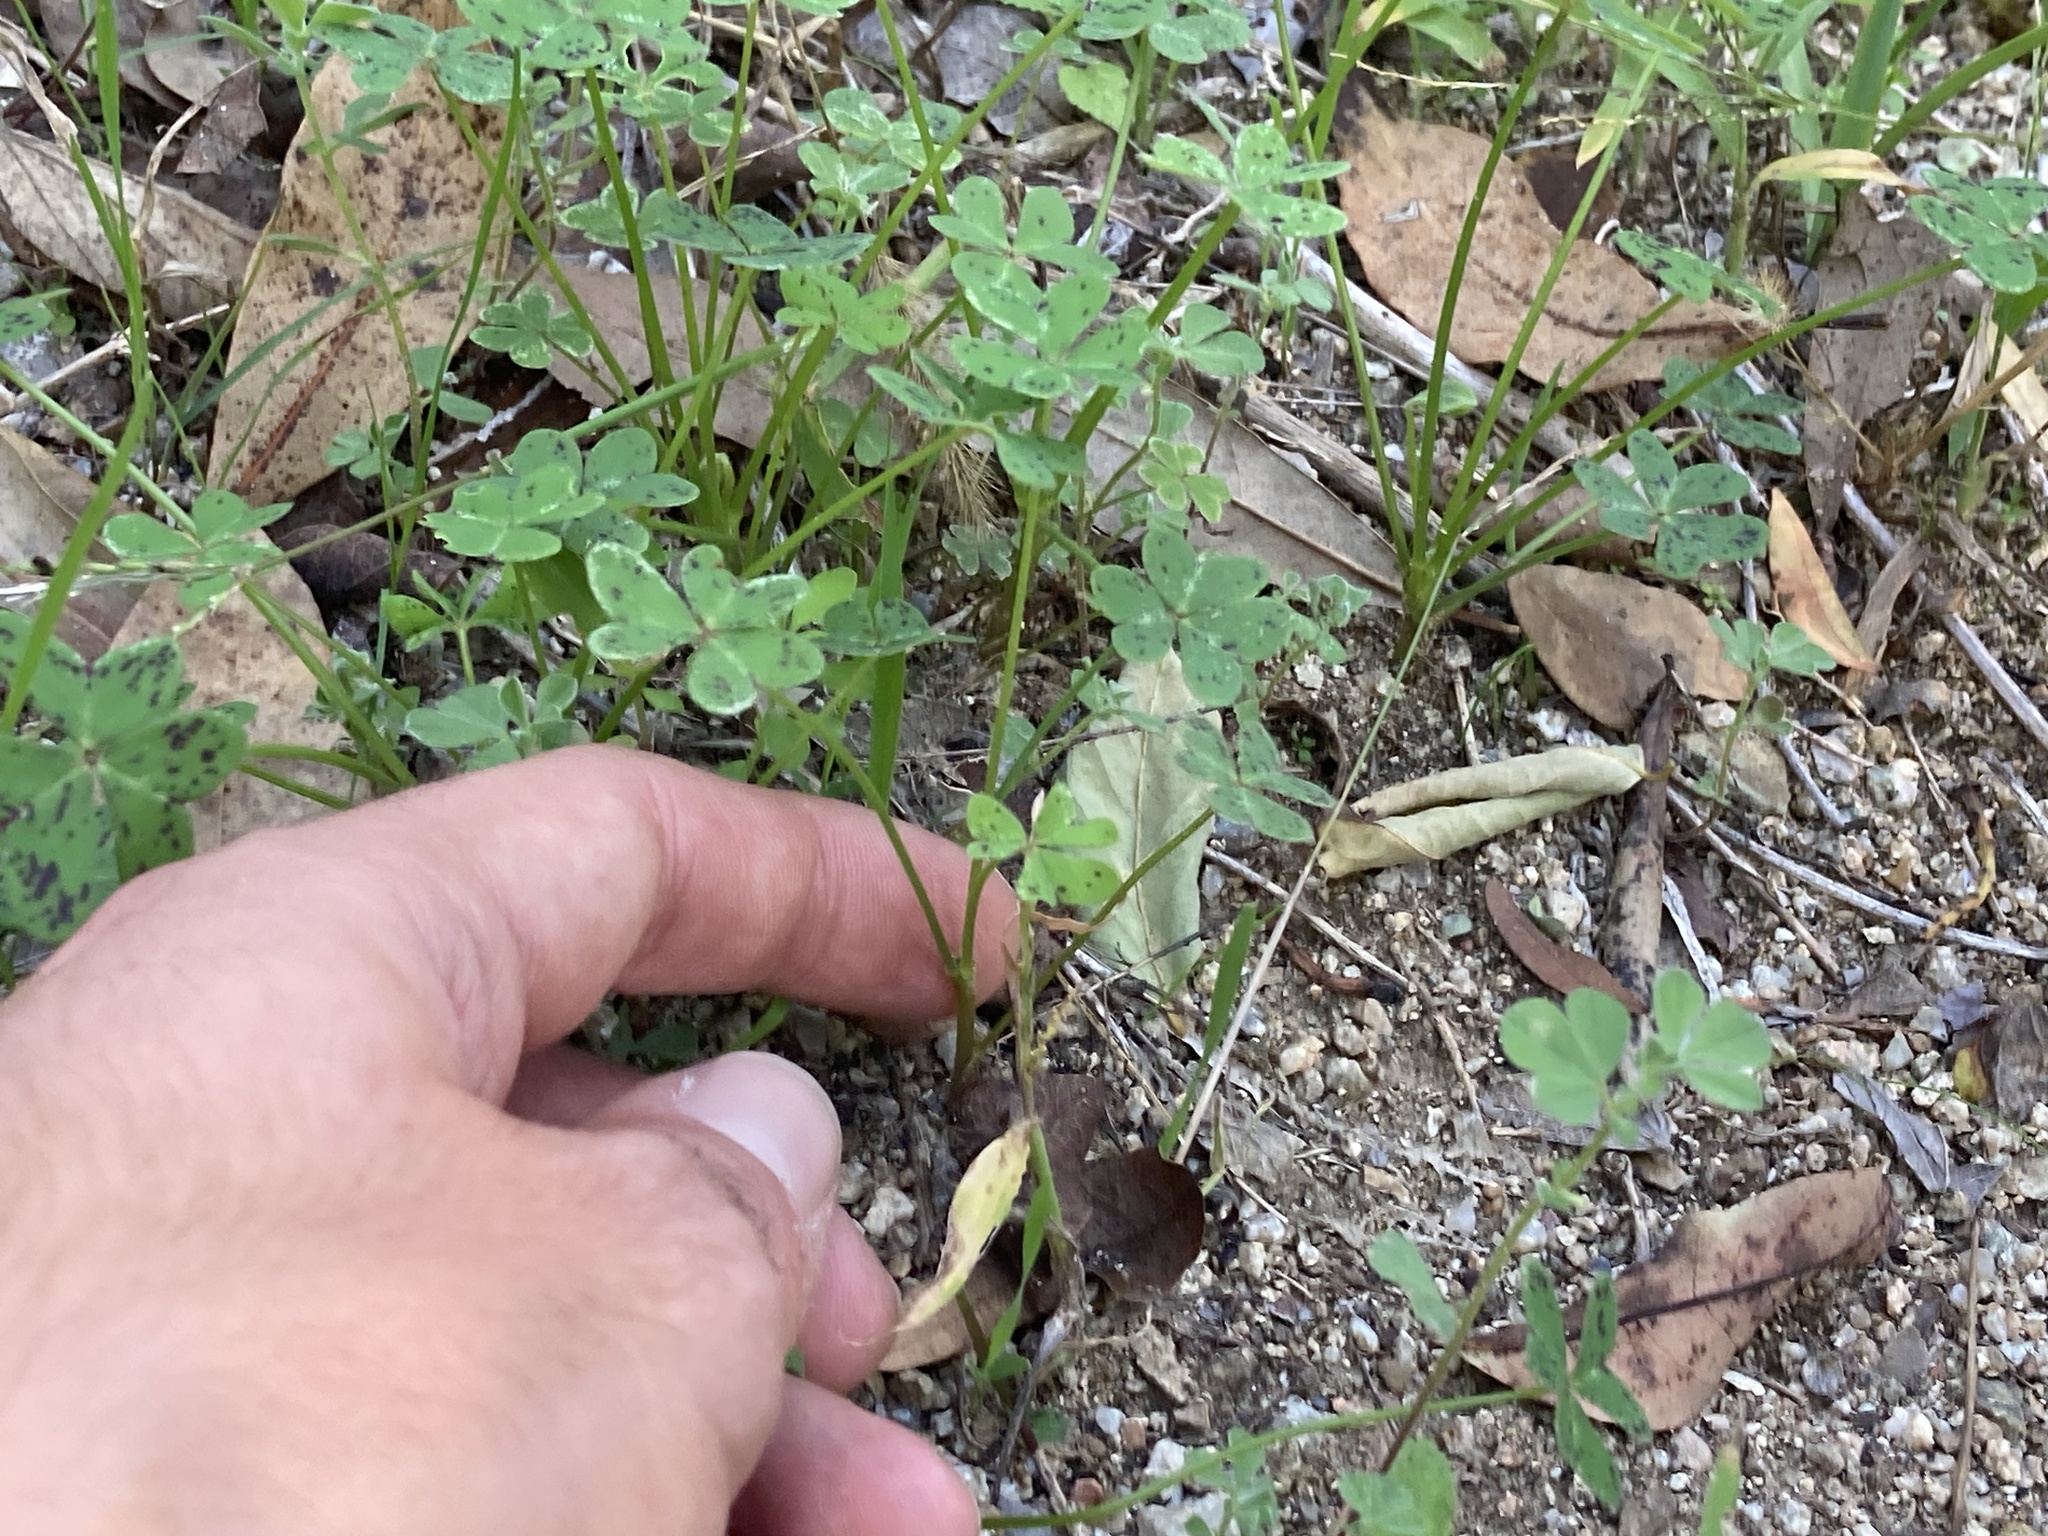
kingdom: Plantae
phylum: Tracheophyta
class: Magnoliopsida
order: Oxalidales
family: Oxalidaceae
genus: Oxalis
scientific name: Oxalis pes-caprae
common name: Bermuda-buttercup
